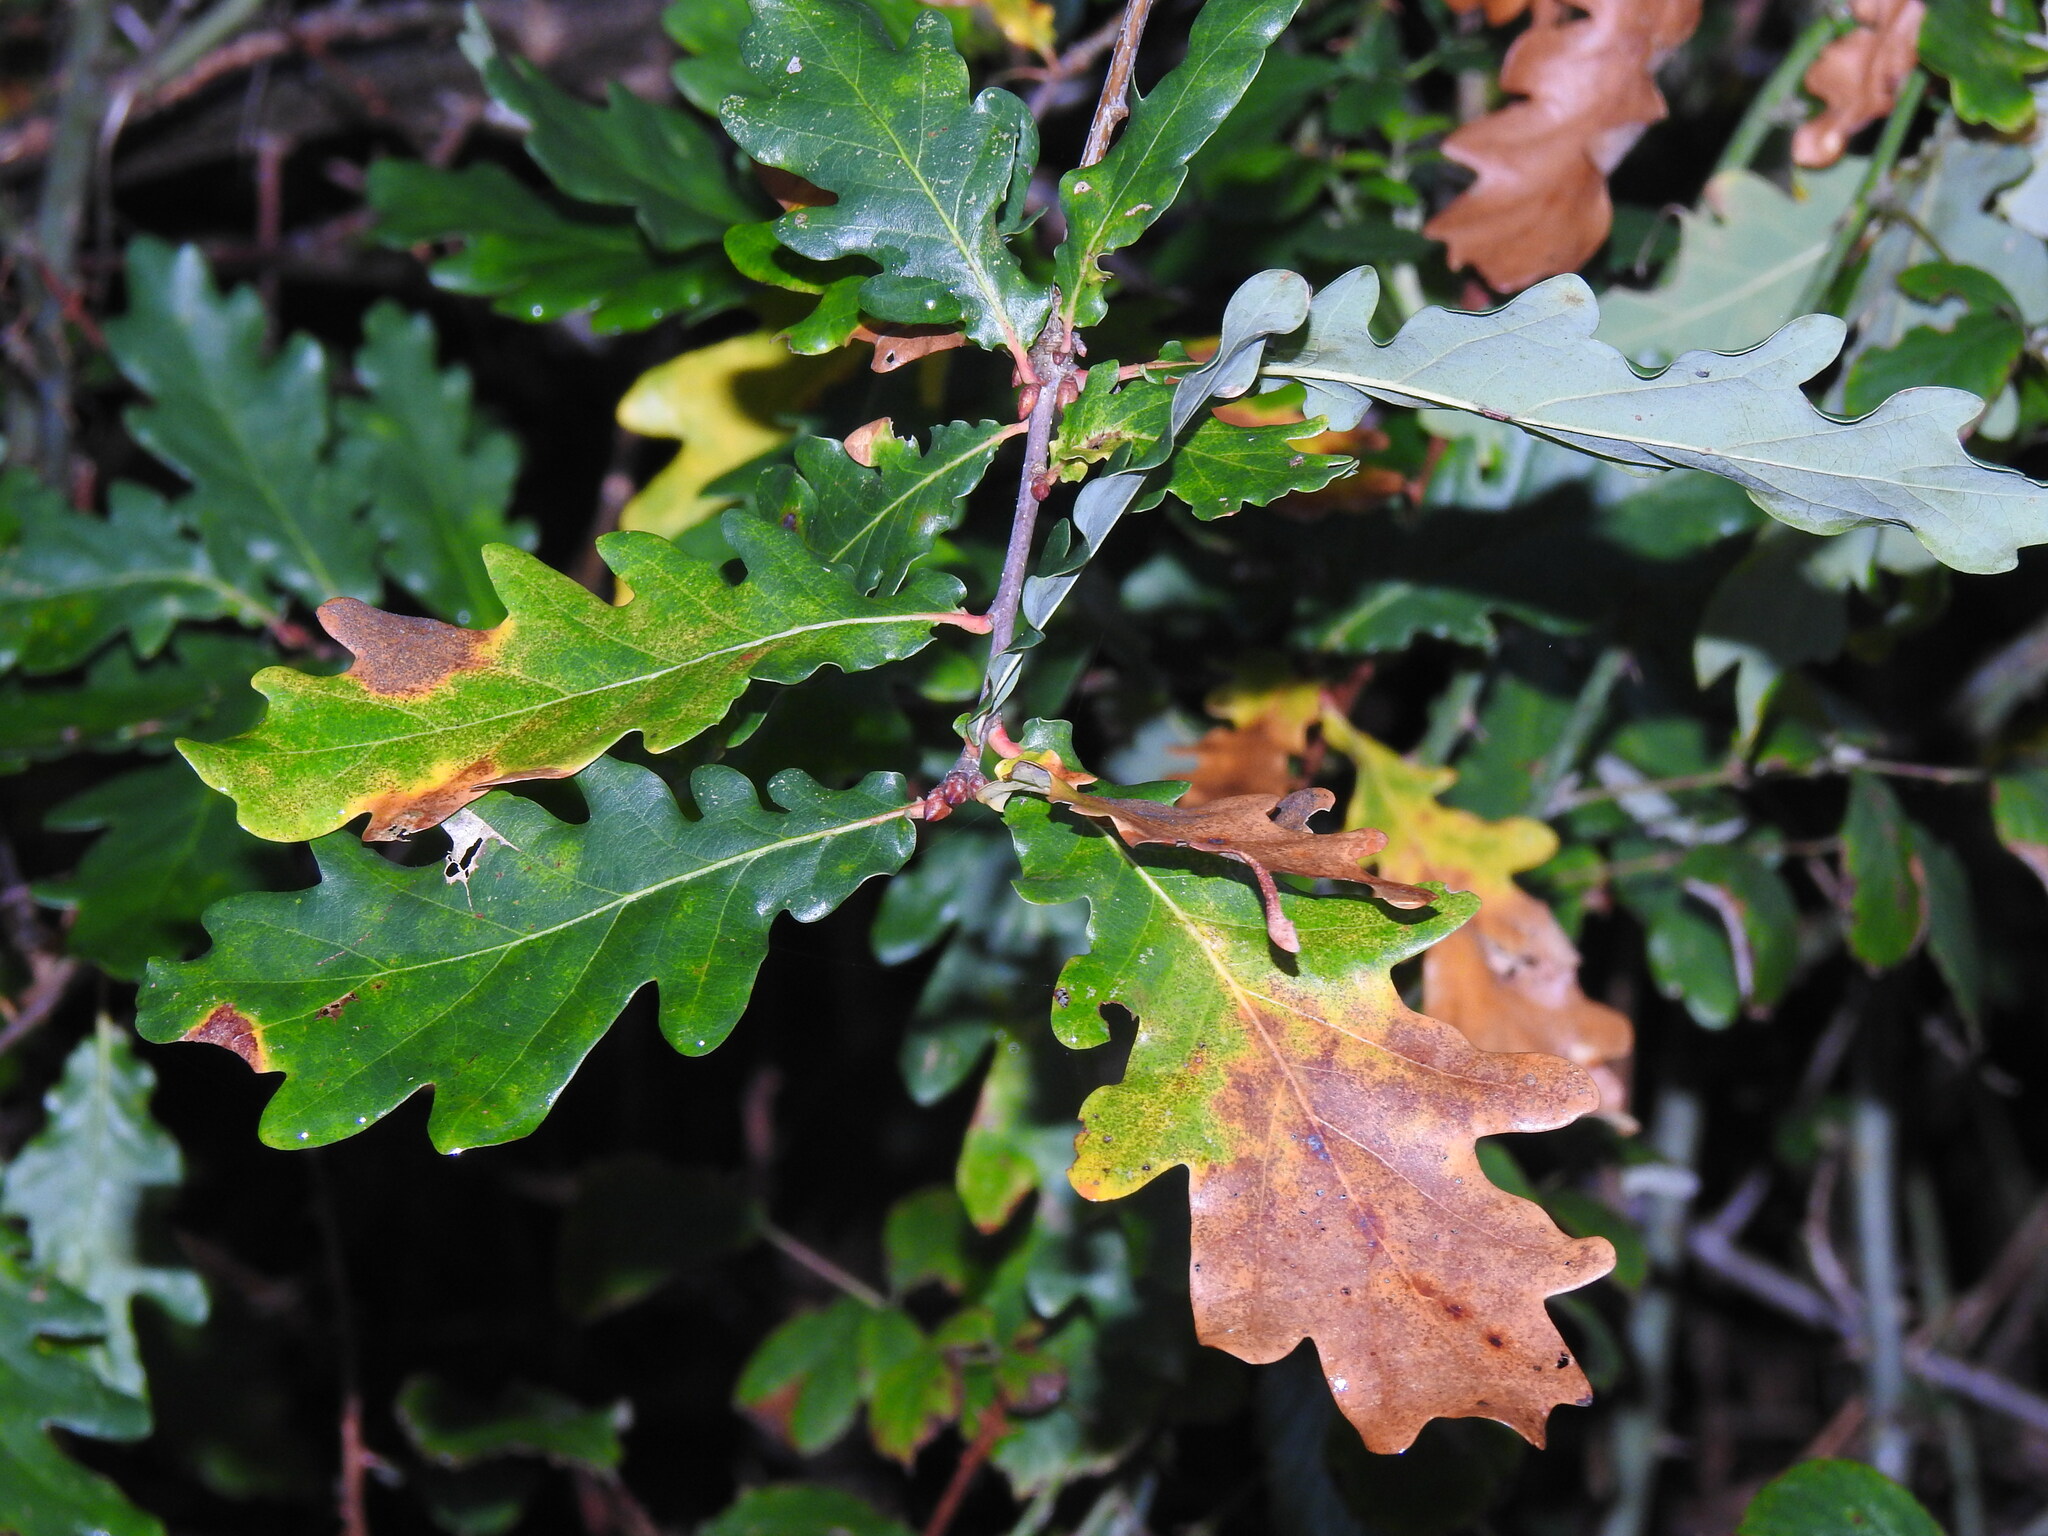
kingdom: Plantae
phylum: Tracheophyta
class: Magnoliopsida
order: Fagales
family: Fagaceae
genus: Quercus
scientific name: Quercus orocantabrica
